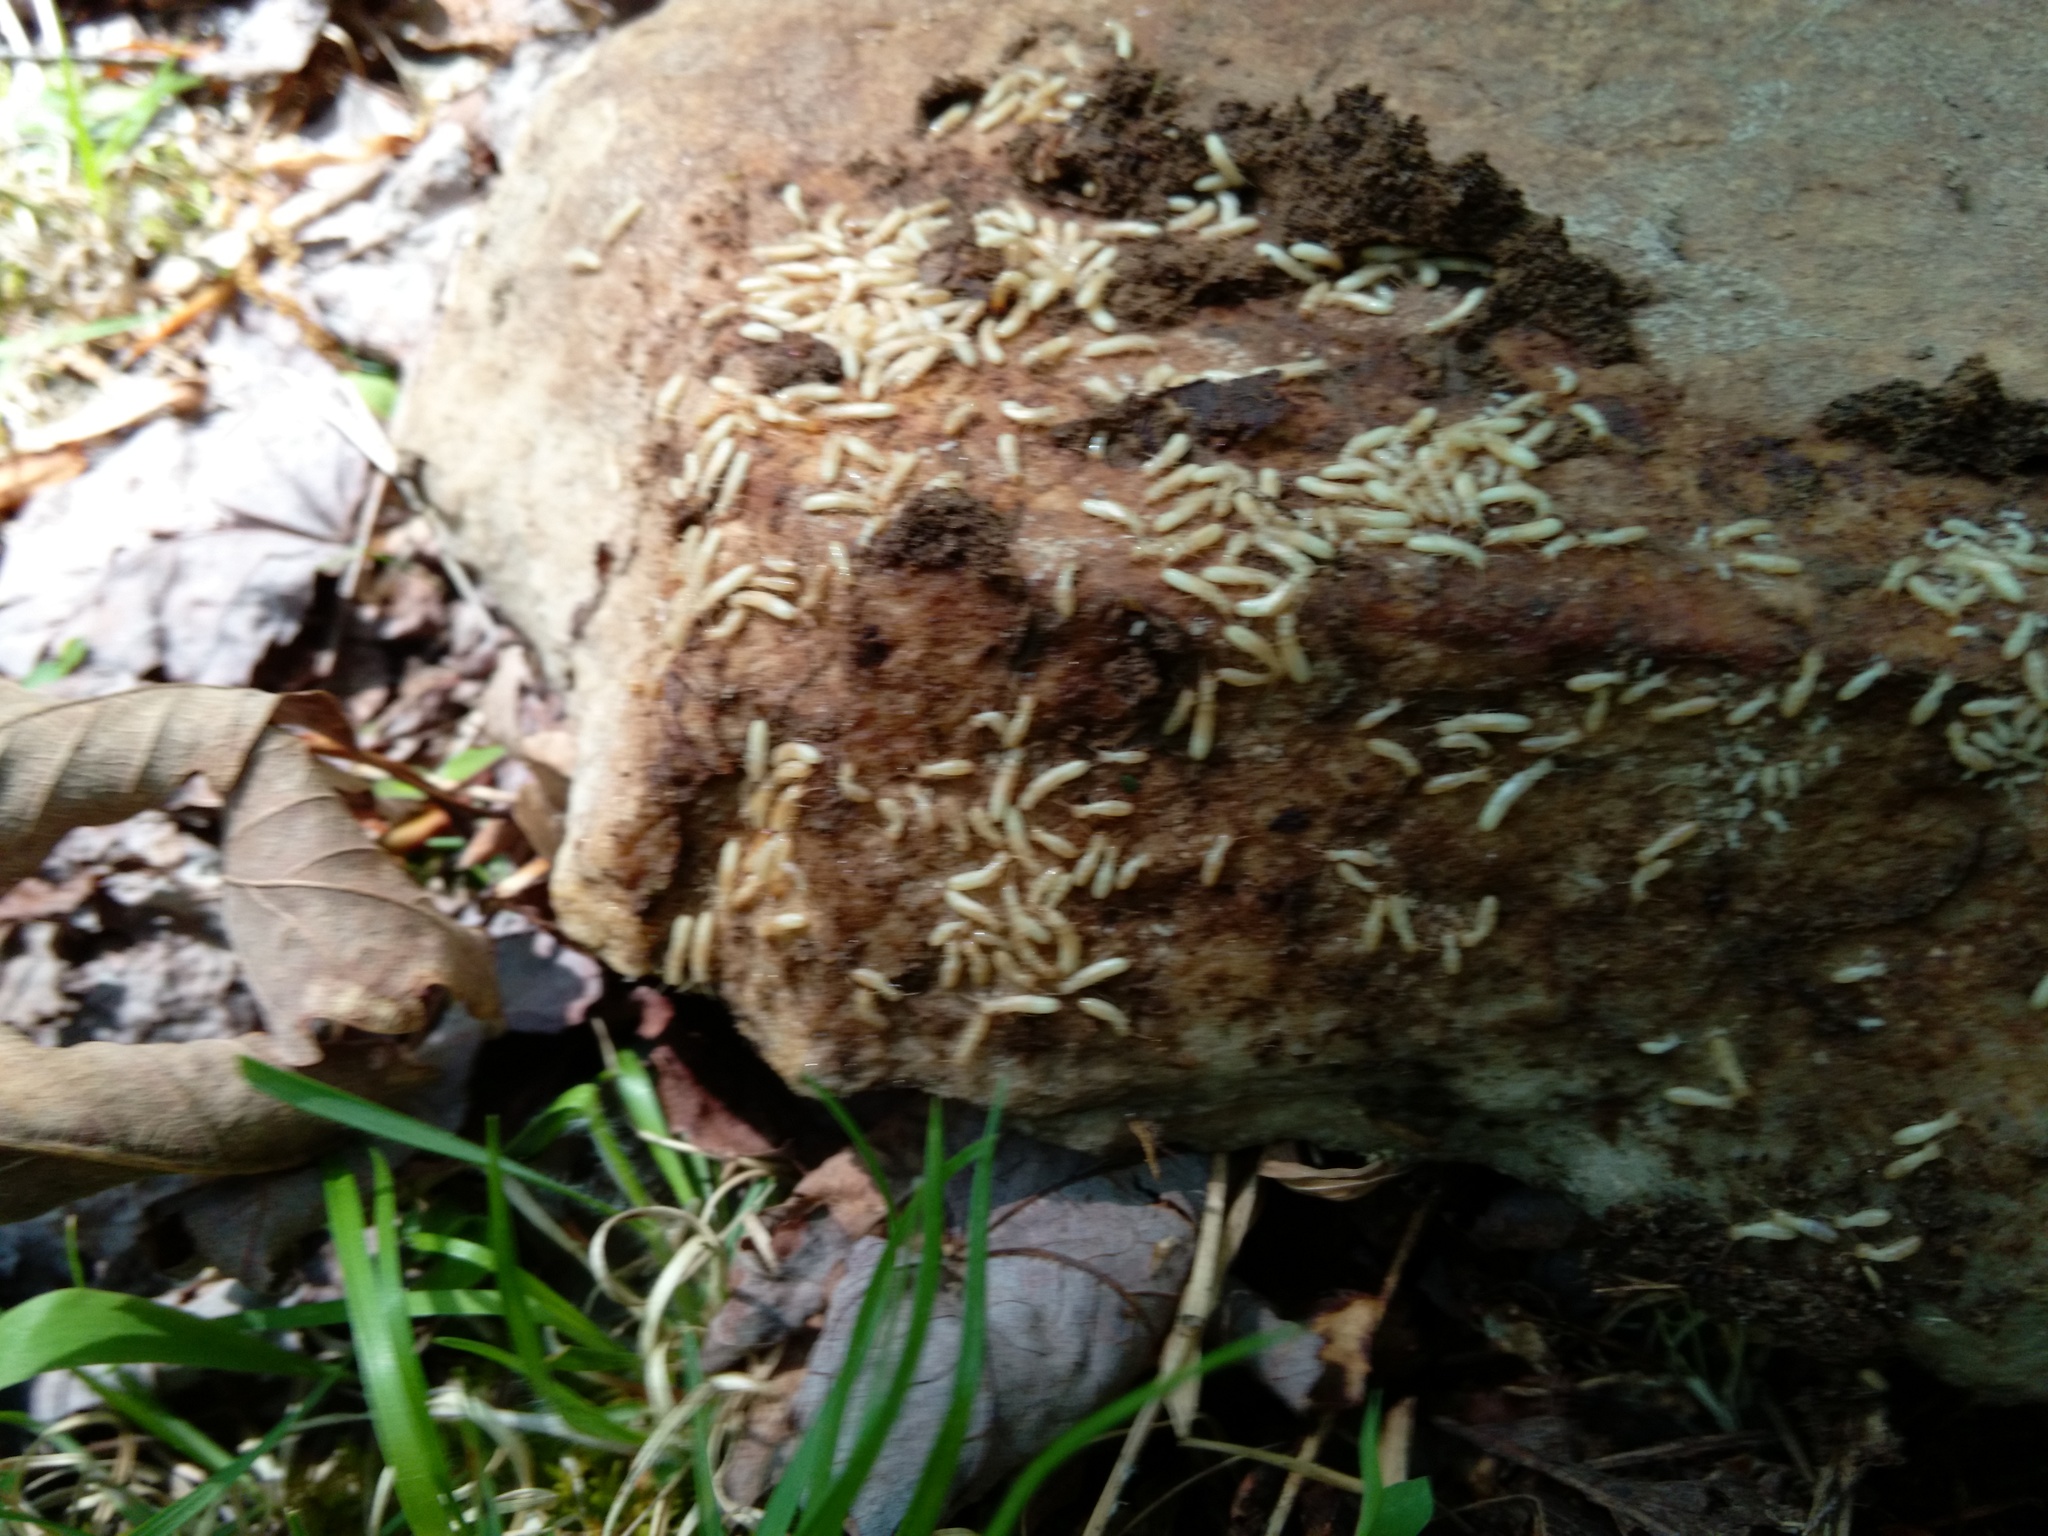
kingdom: Animalia
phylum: Arthropoda
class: Insecta
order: Blattodea
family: Rhinotermitidae
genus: Reticulitermes
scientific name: Reticulitermes flavipes
